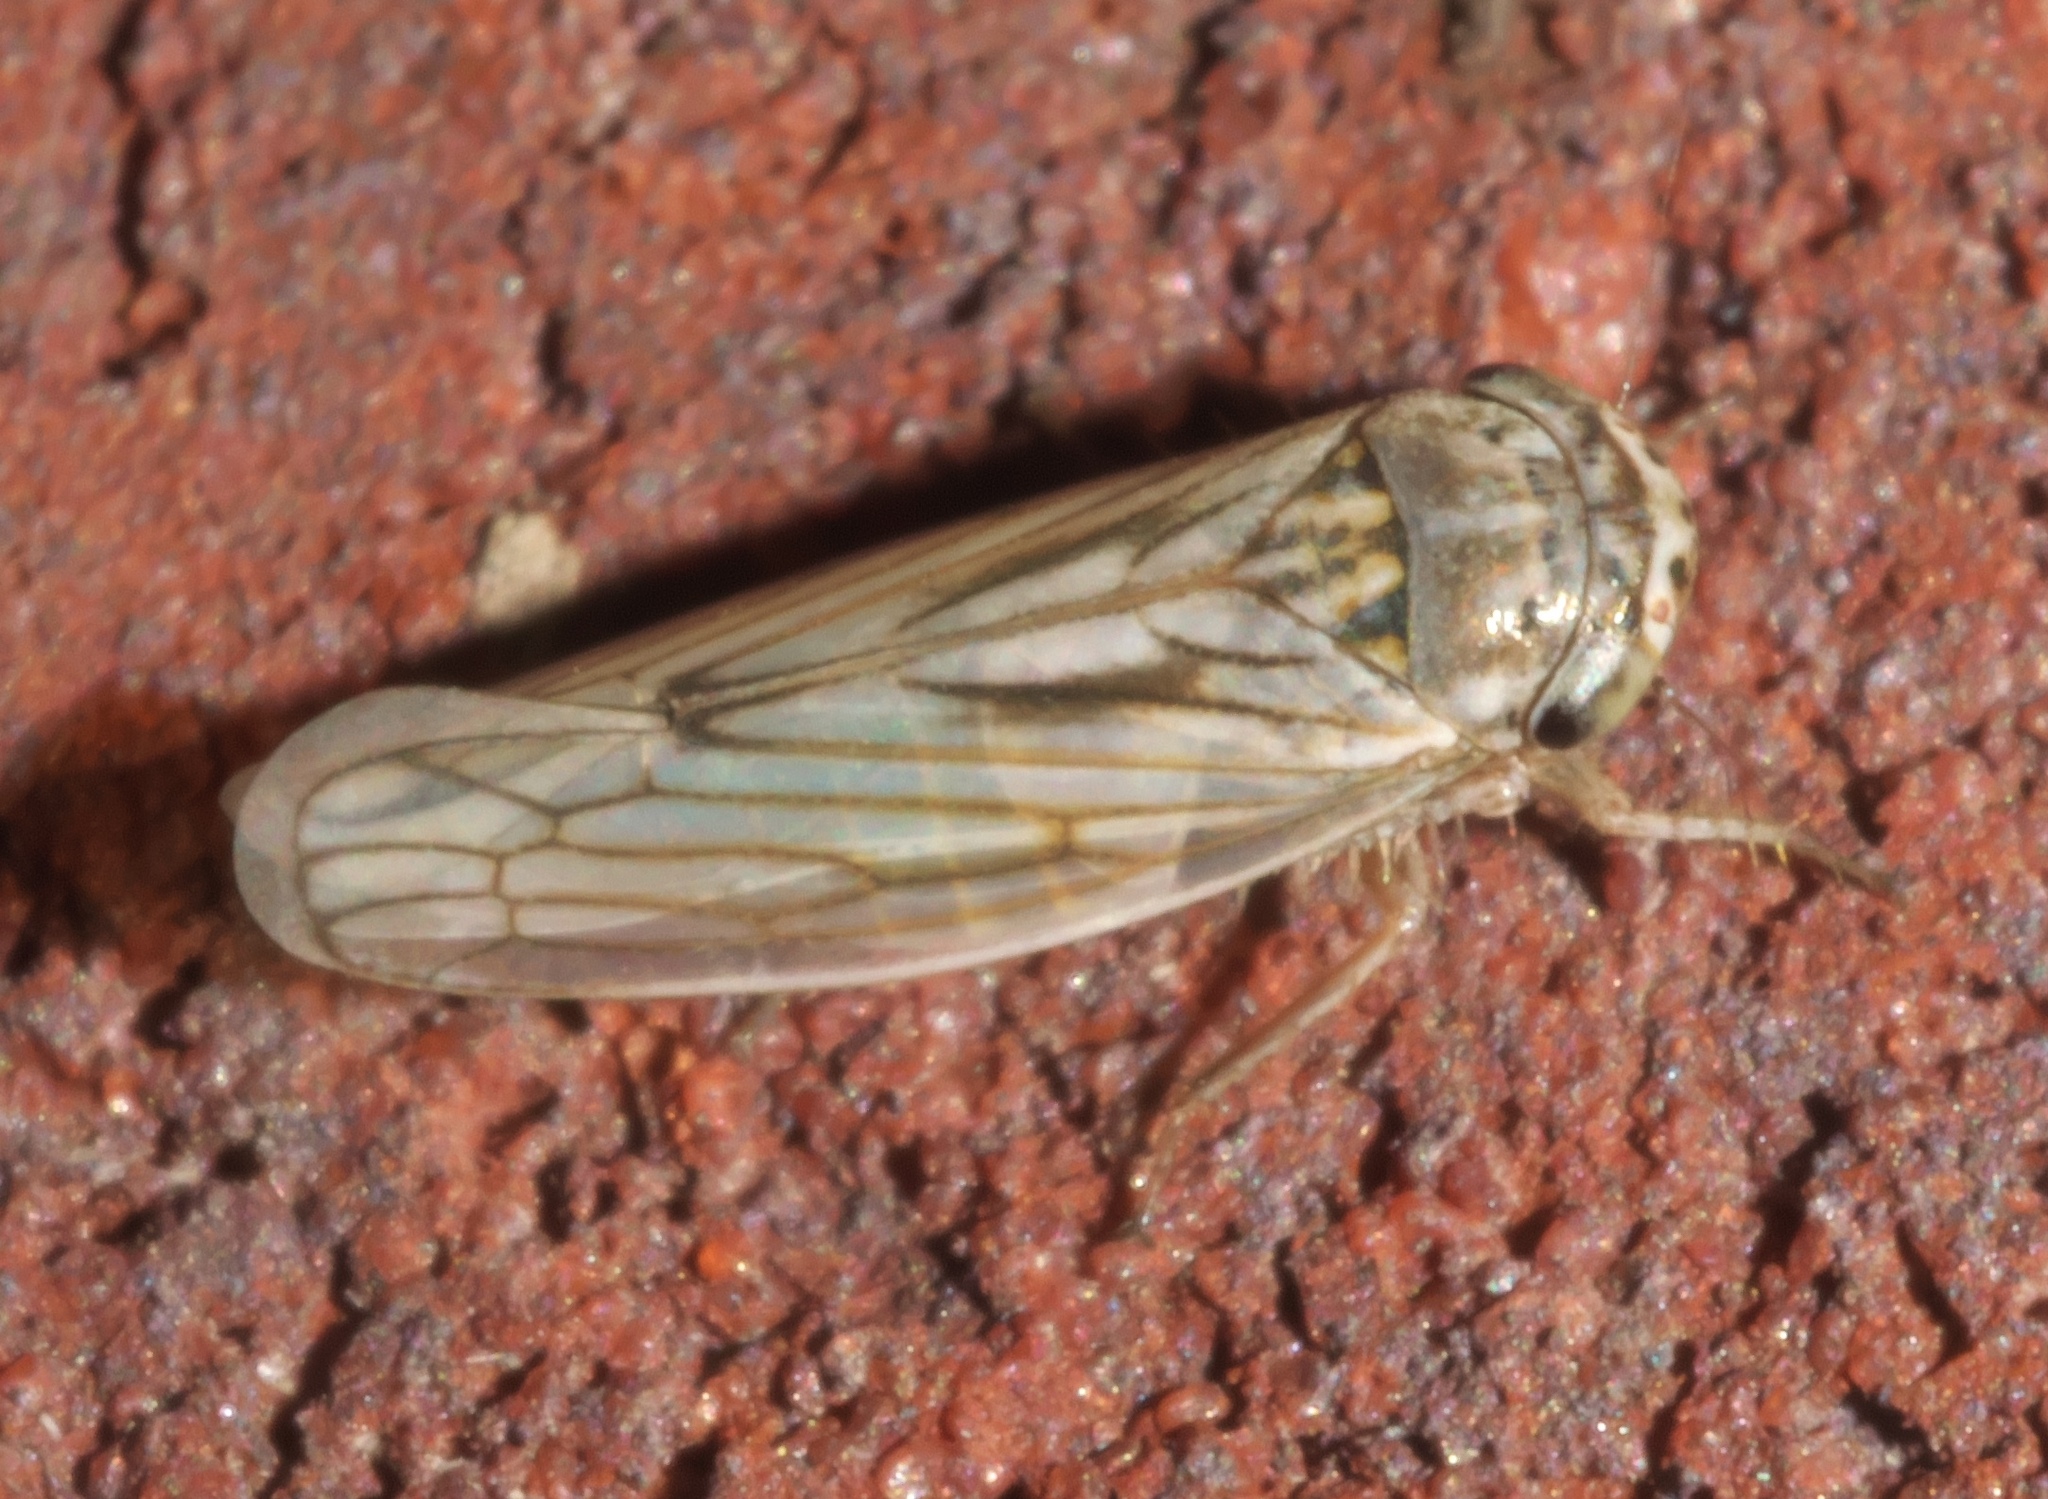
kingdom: Animalia
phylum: Arthropoda
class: Insecta
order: Hemiptera
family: Cicadellidae
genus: Exitianus
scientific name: Exitianus exitiosus
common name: Gray lawn leafhopper
